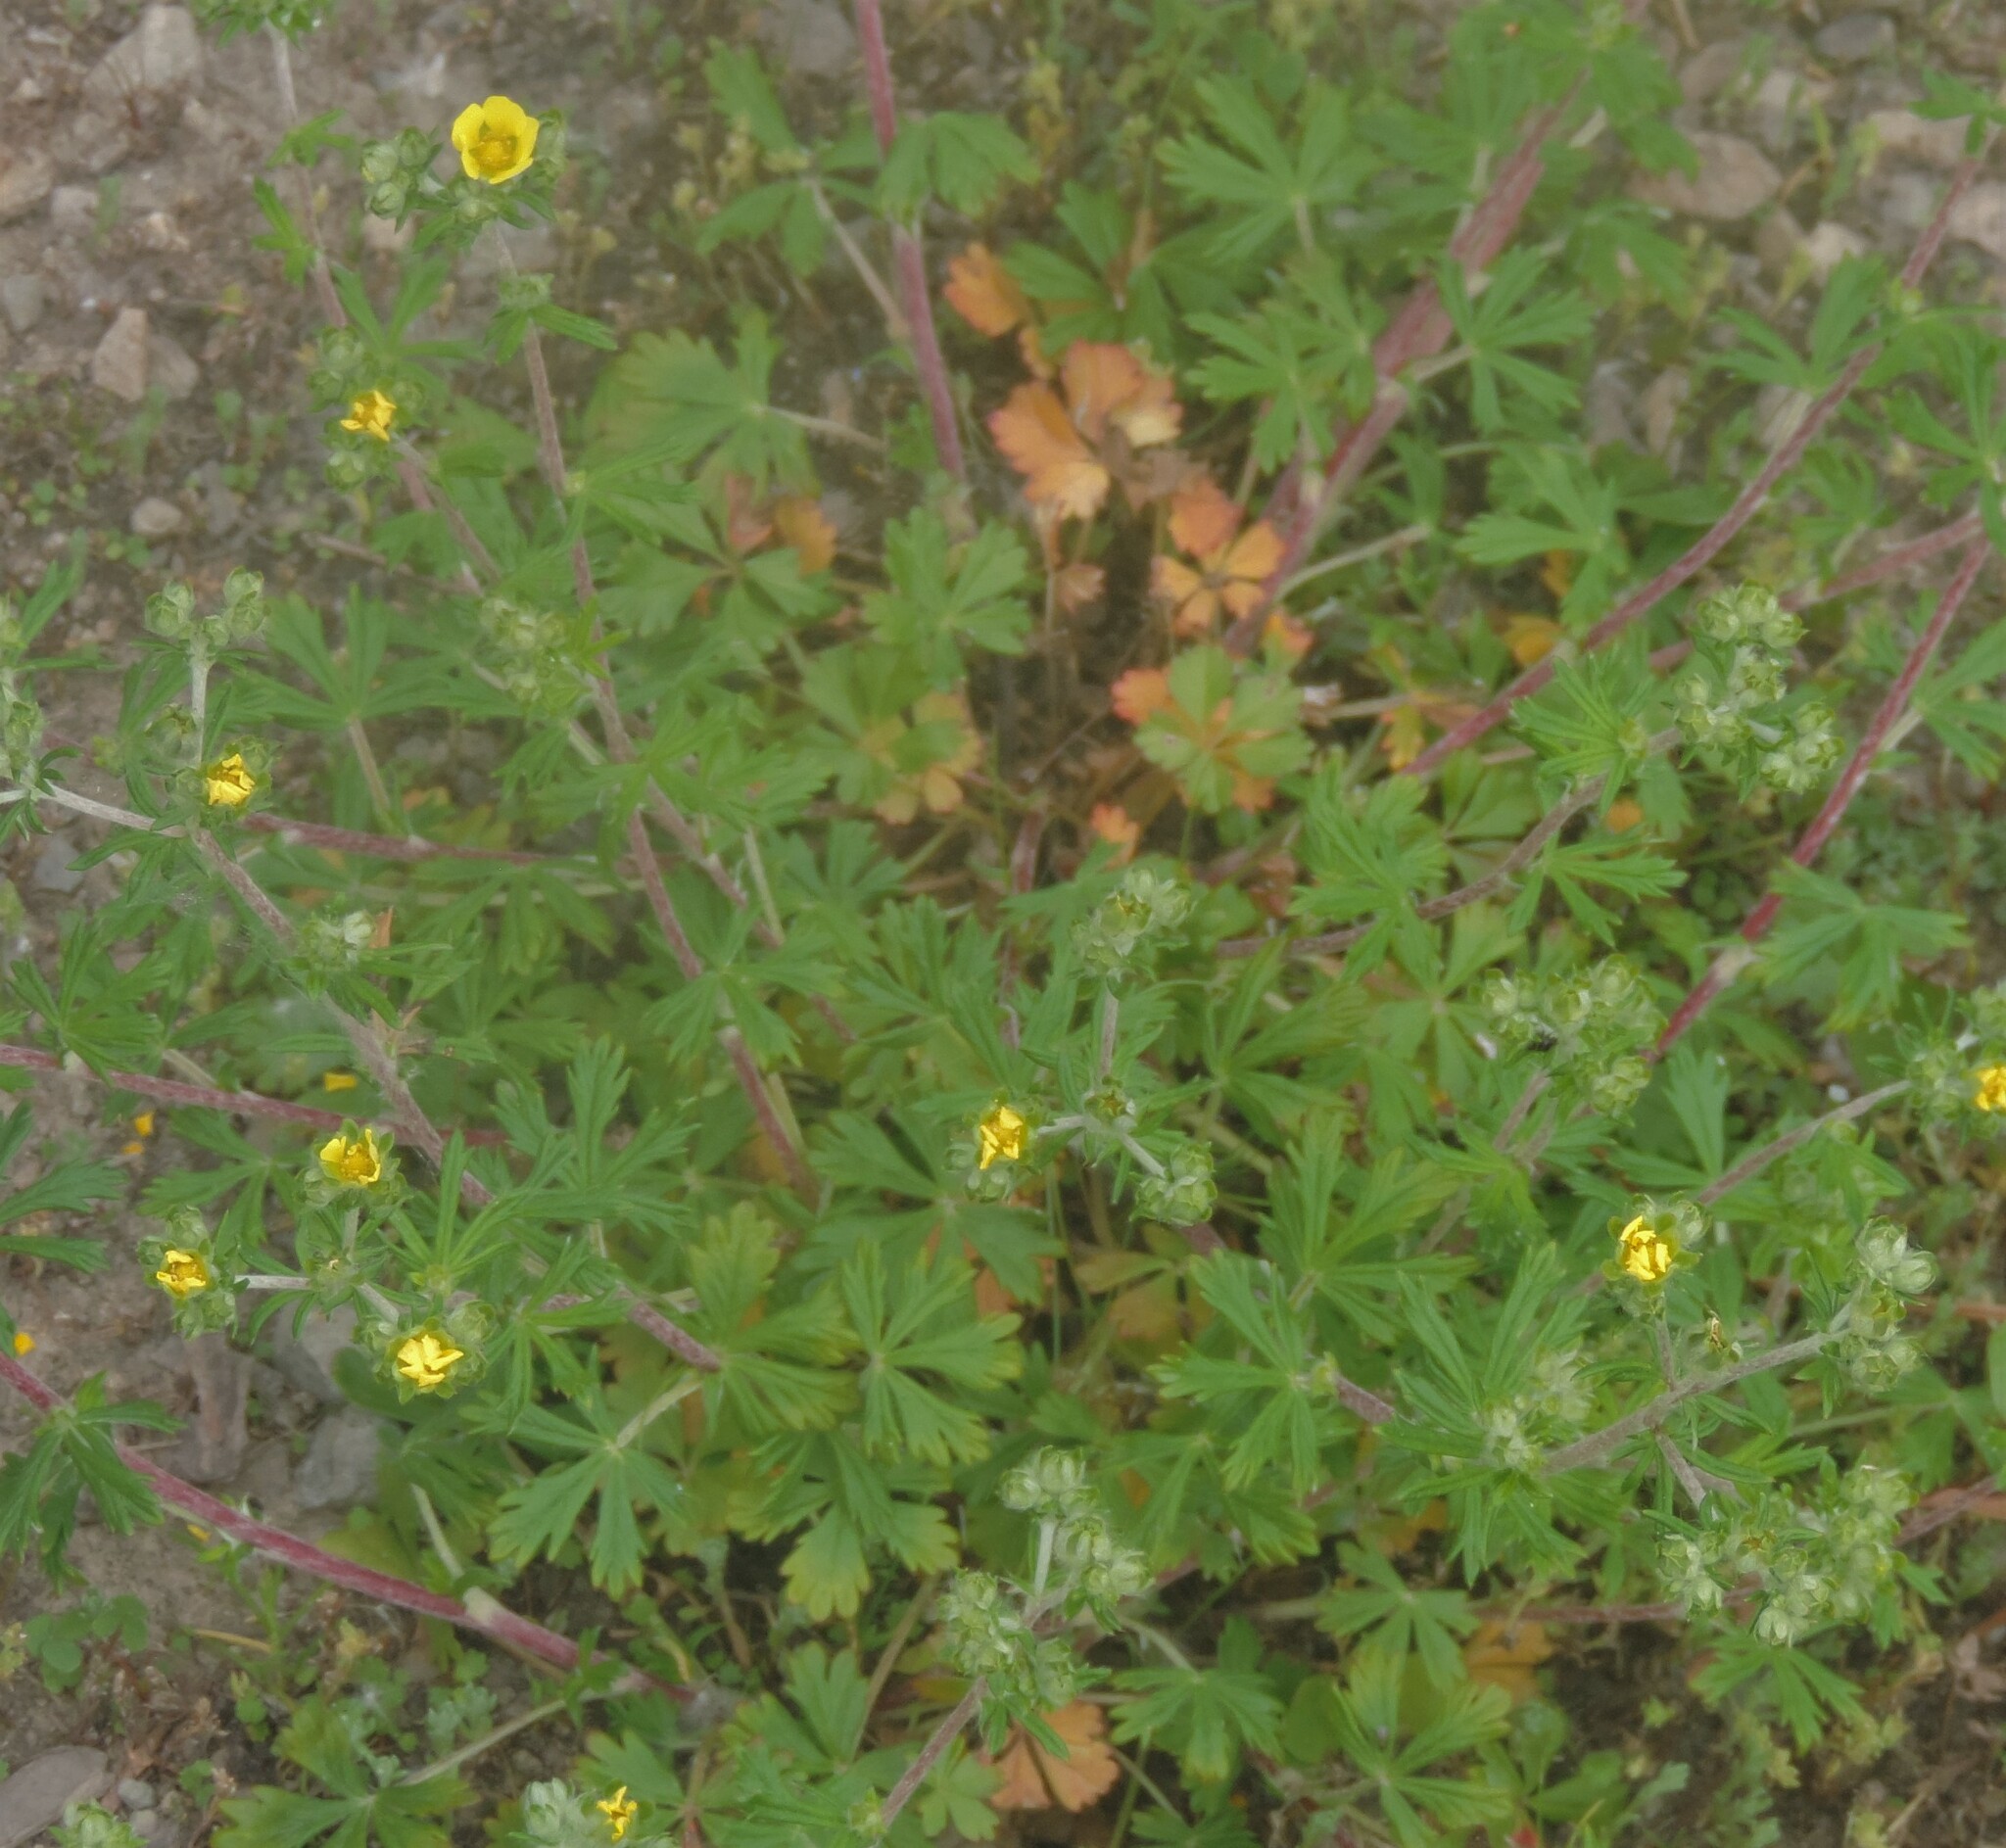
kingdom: Plantae
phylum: Tracheophyta
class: Magnoliopsida
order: Rosales
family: Rosaceae
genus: Potentilla
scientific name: Potentilla argentea
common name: Hoary cinquefoil
